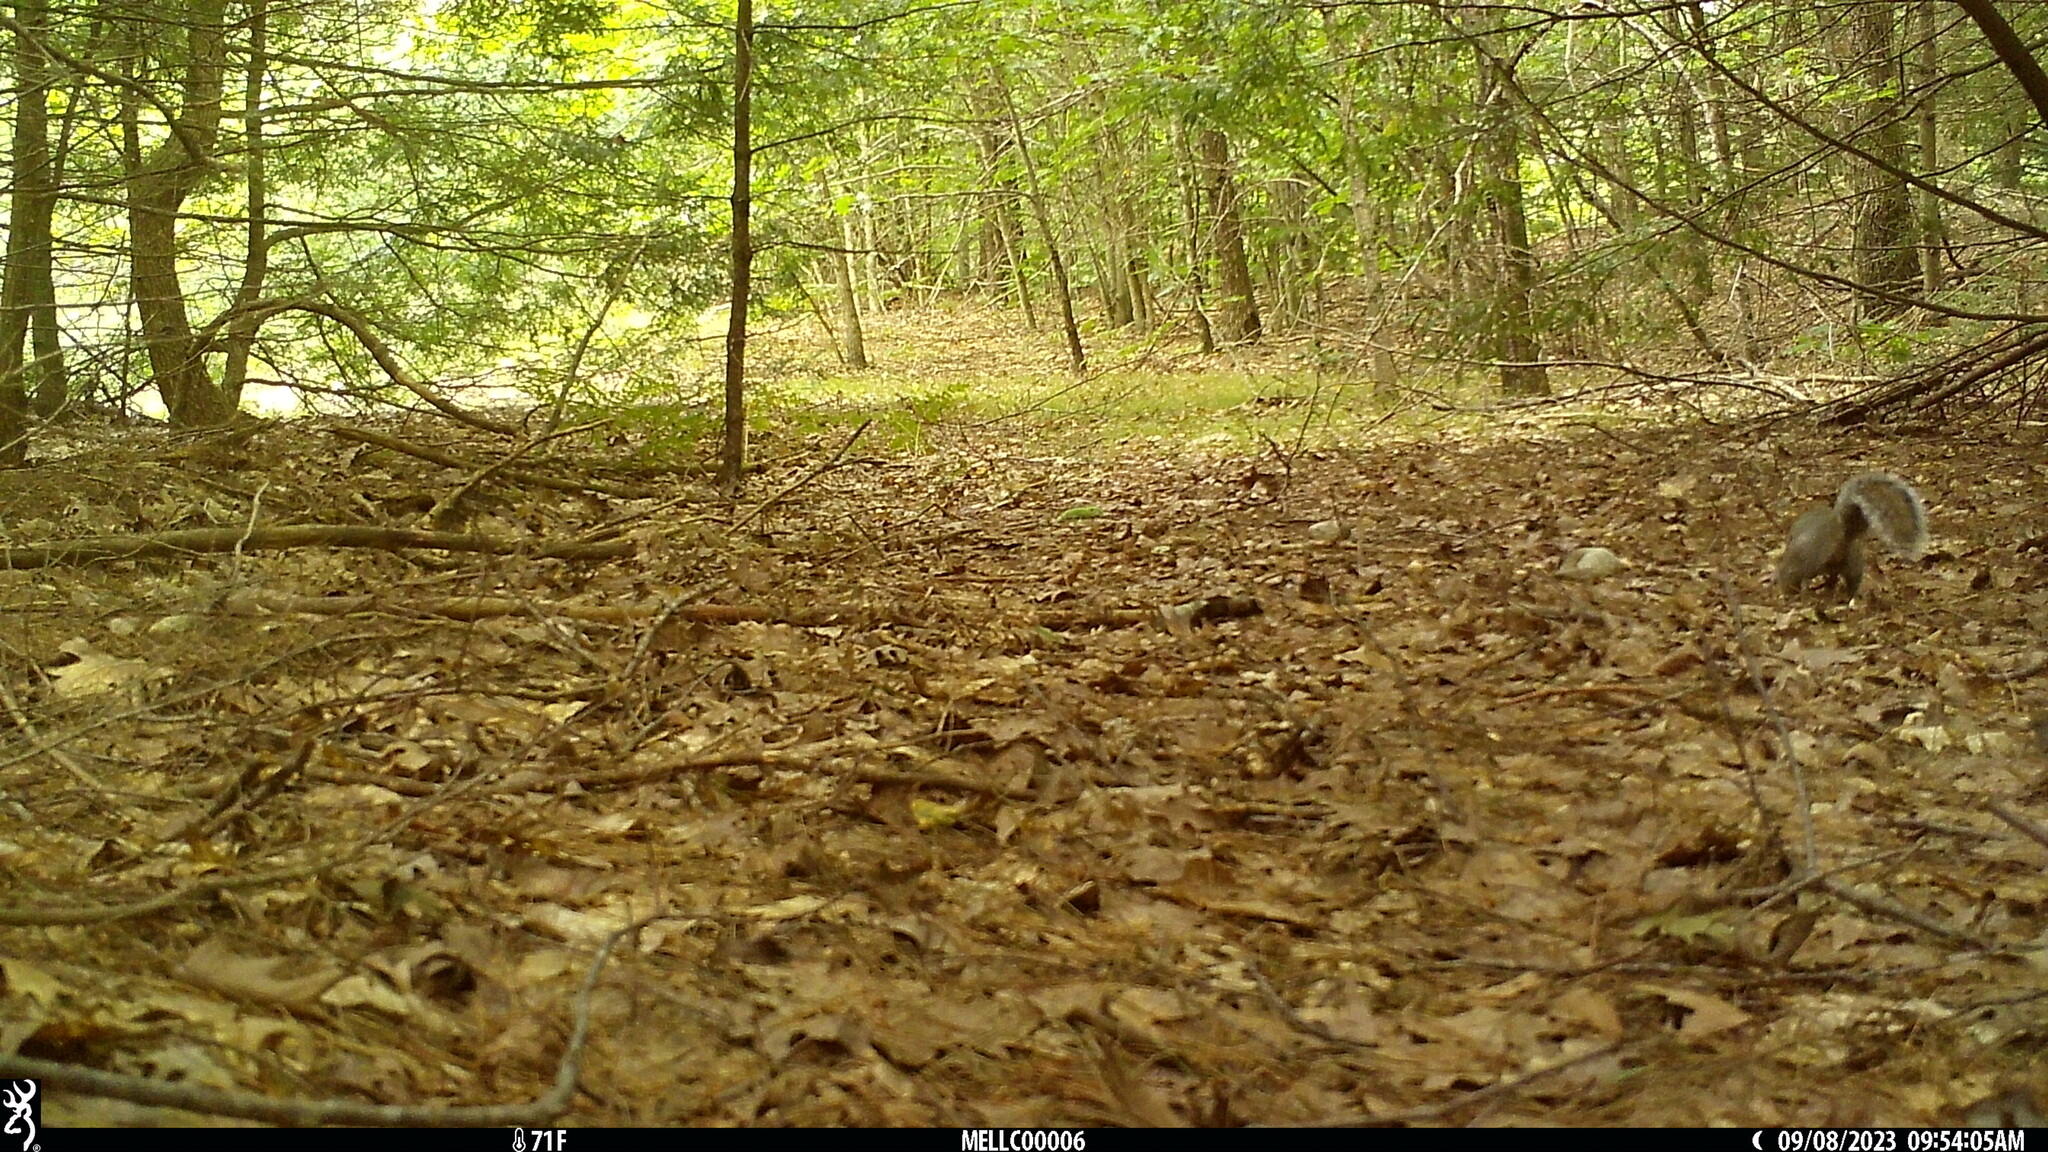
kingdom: Animalia
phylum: Chordata
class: Mammalia
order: Rodentia
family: Sciuridae
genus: Sciurus
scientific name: Sciurus carolinensis
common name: Eastern gray squirrel
